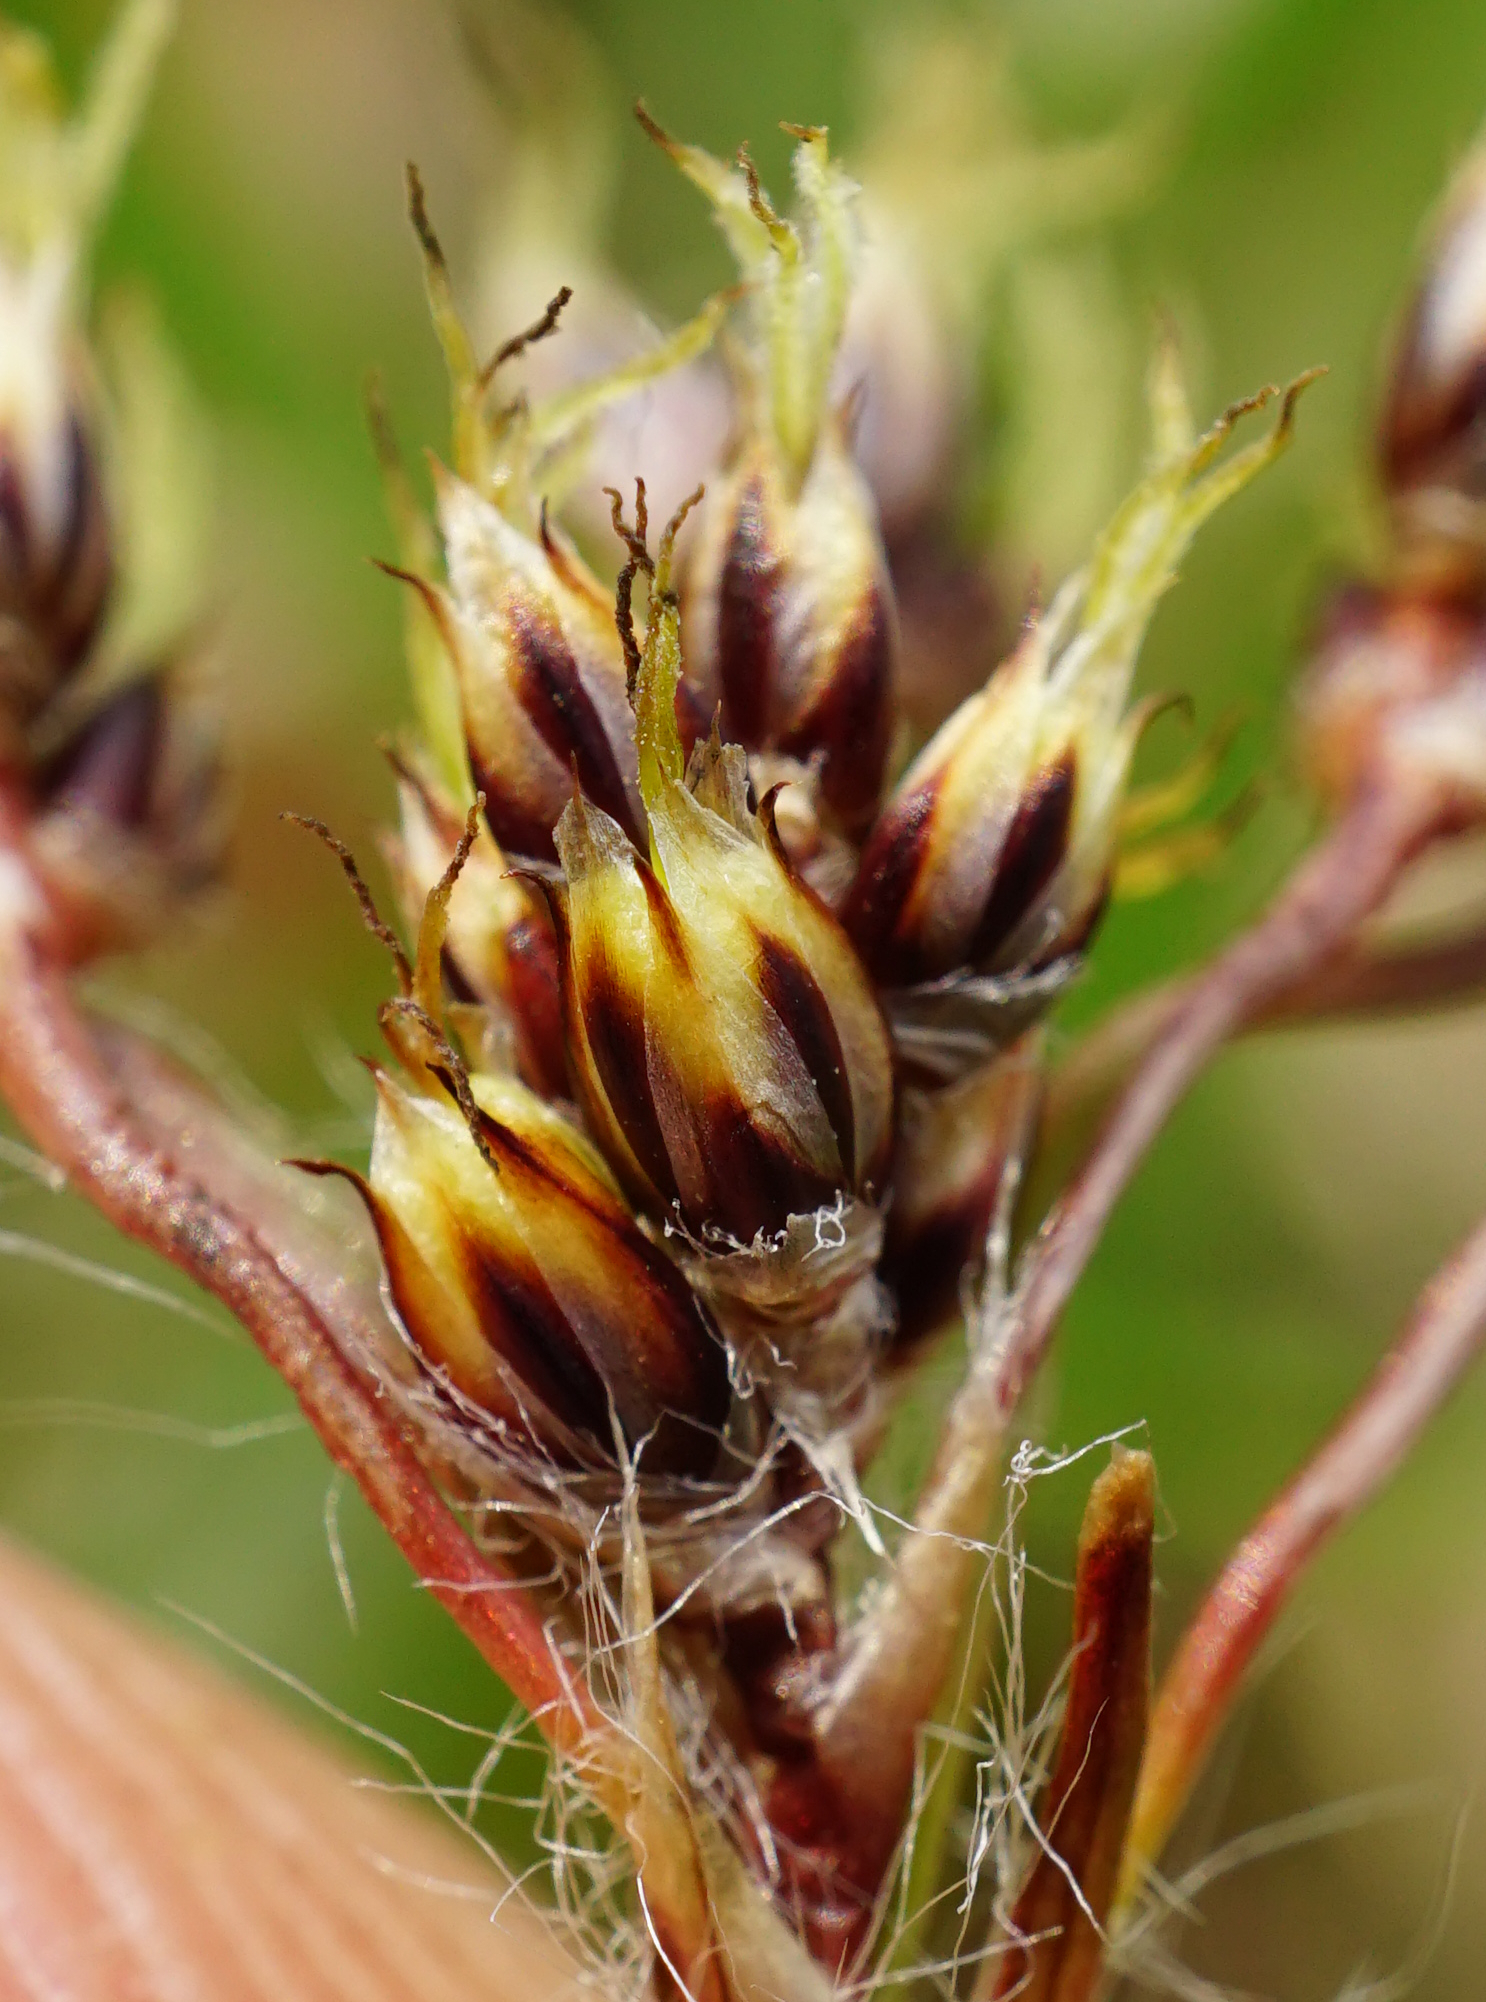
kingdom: Plantae
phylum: Tracheophyta
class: Liliopsida
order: Poales
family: Juncaceae
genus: Luzula
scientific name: Luzula campestris
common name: Field wood-rush
